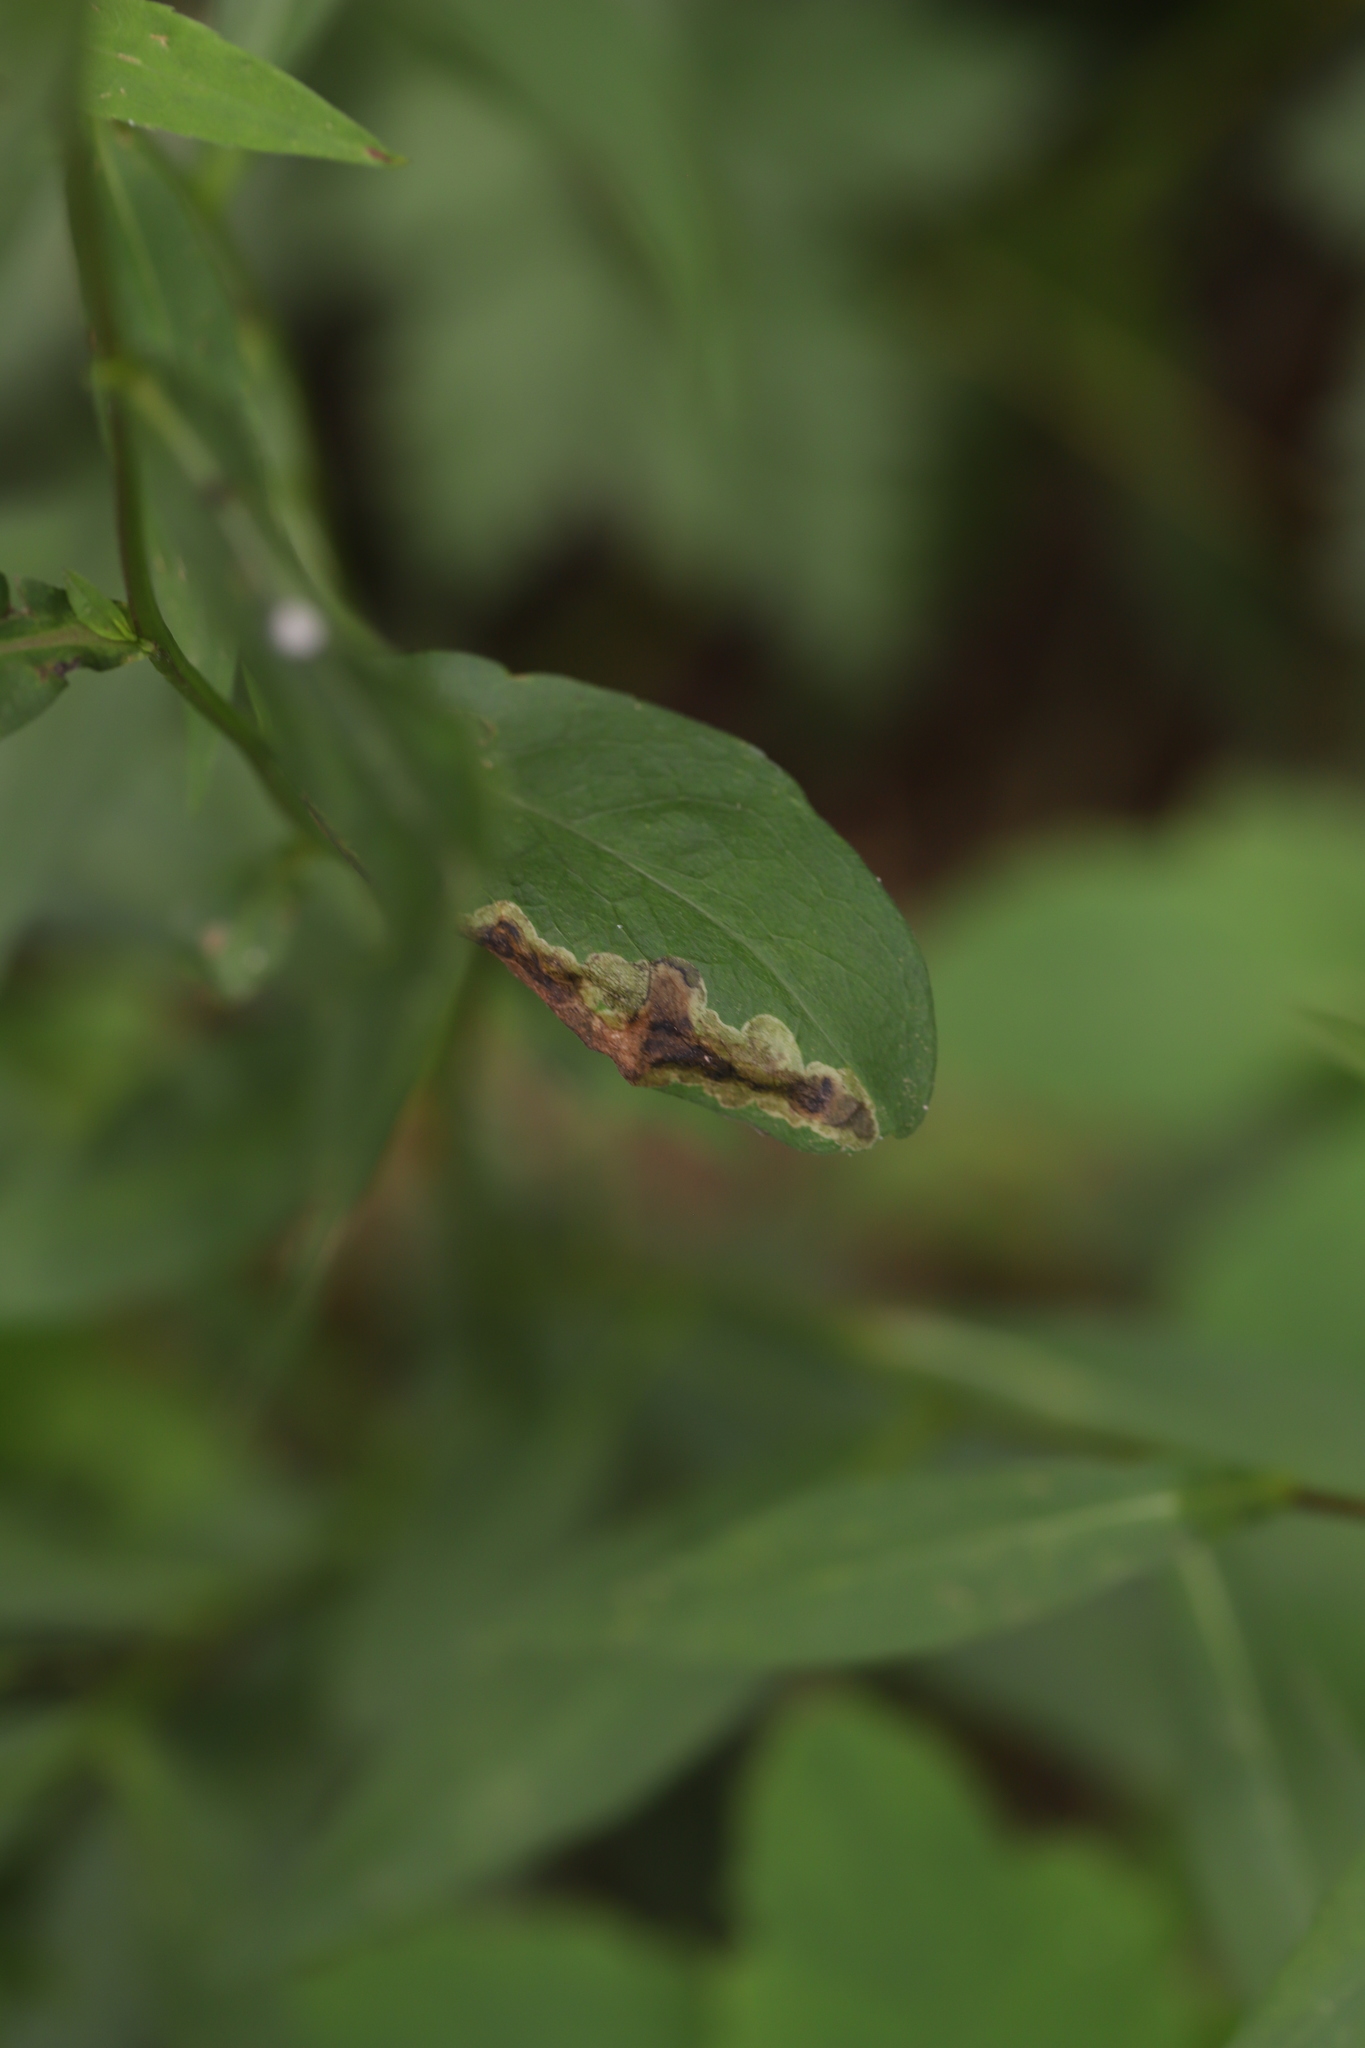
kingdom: Animalia
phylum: Arthropoda
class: Insecta
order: Diptera
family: Agromyzidae
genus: Nemorimyza
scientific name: Nemorimyza posticata
